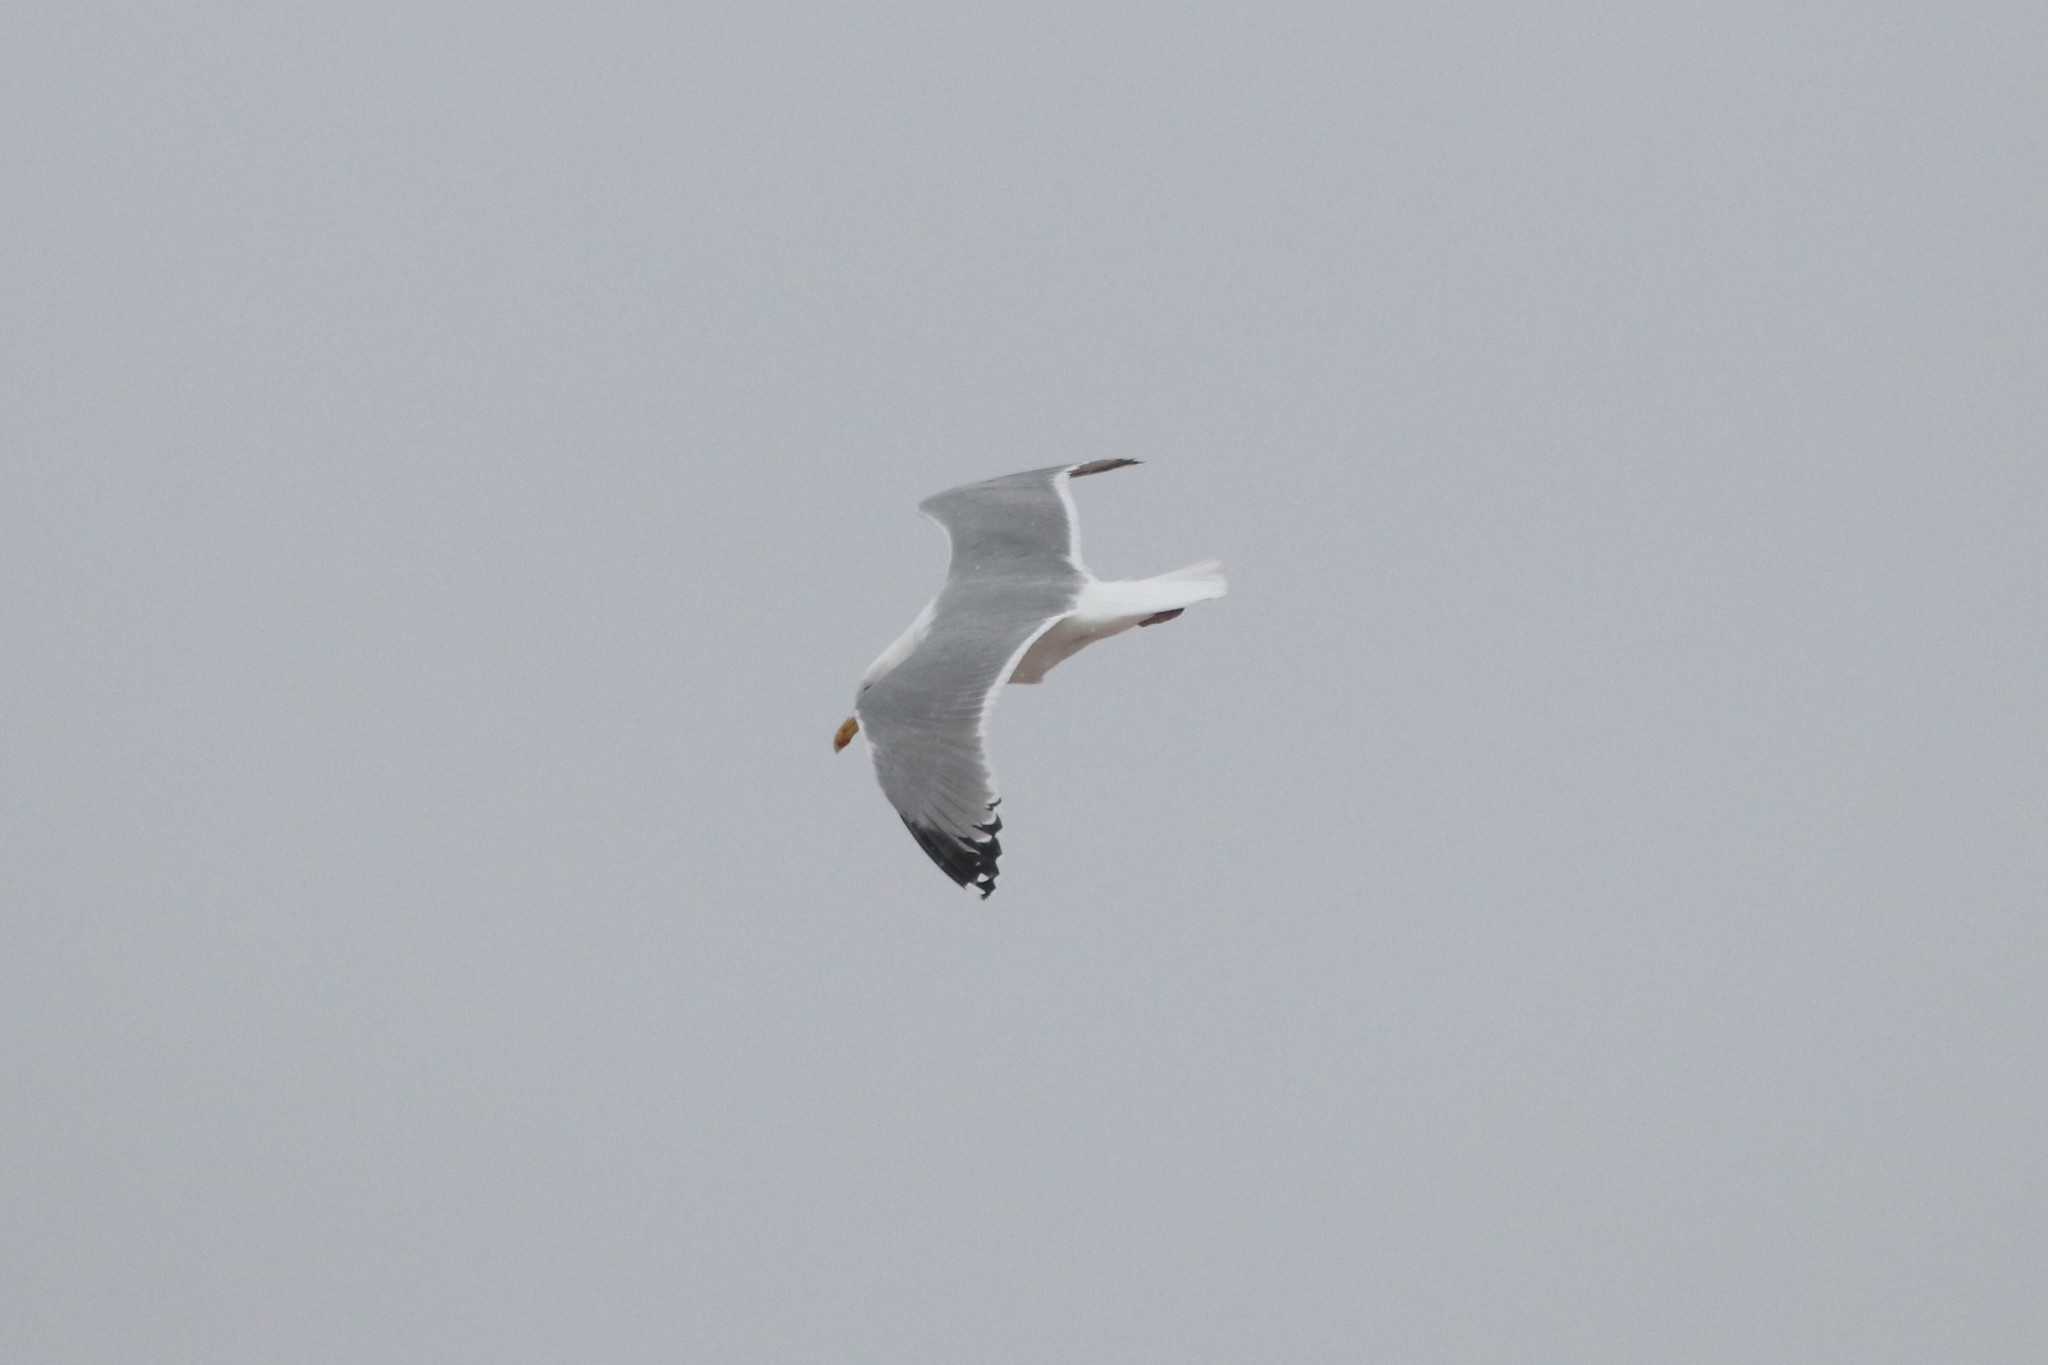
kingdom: Animalia
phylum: Chordata
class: Aves
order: Charadriiformes
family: Laridae
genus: Larus
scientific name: Larus argentatus
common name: Herring gull
